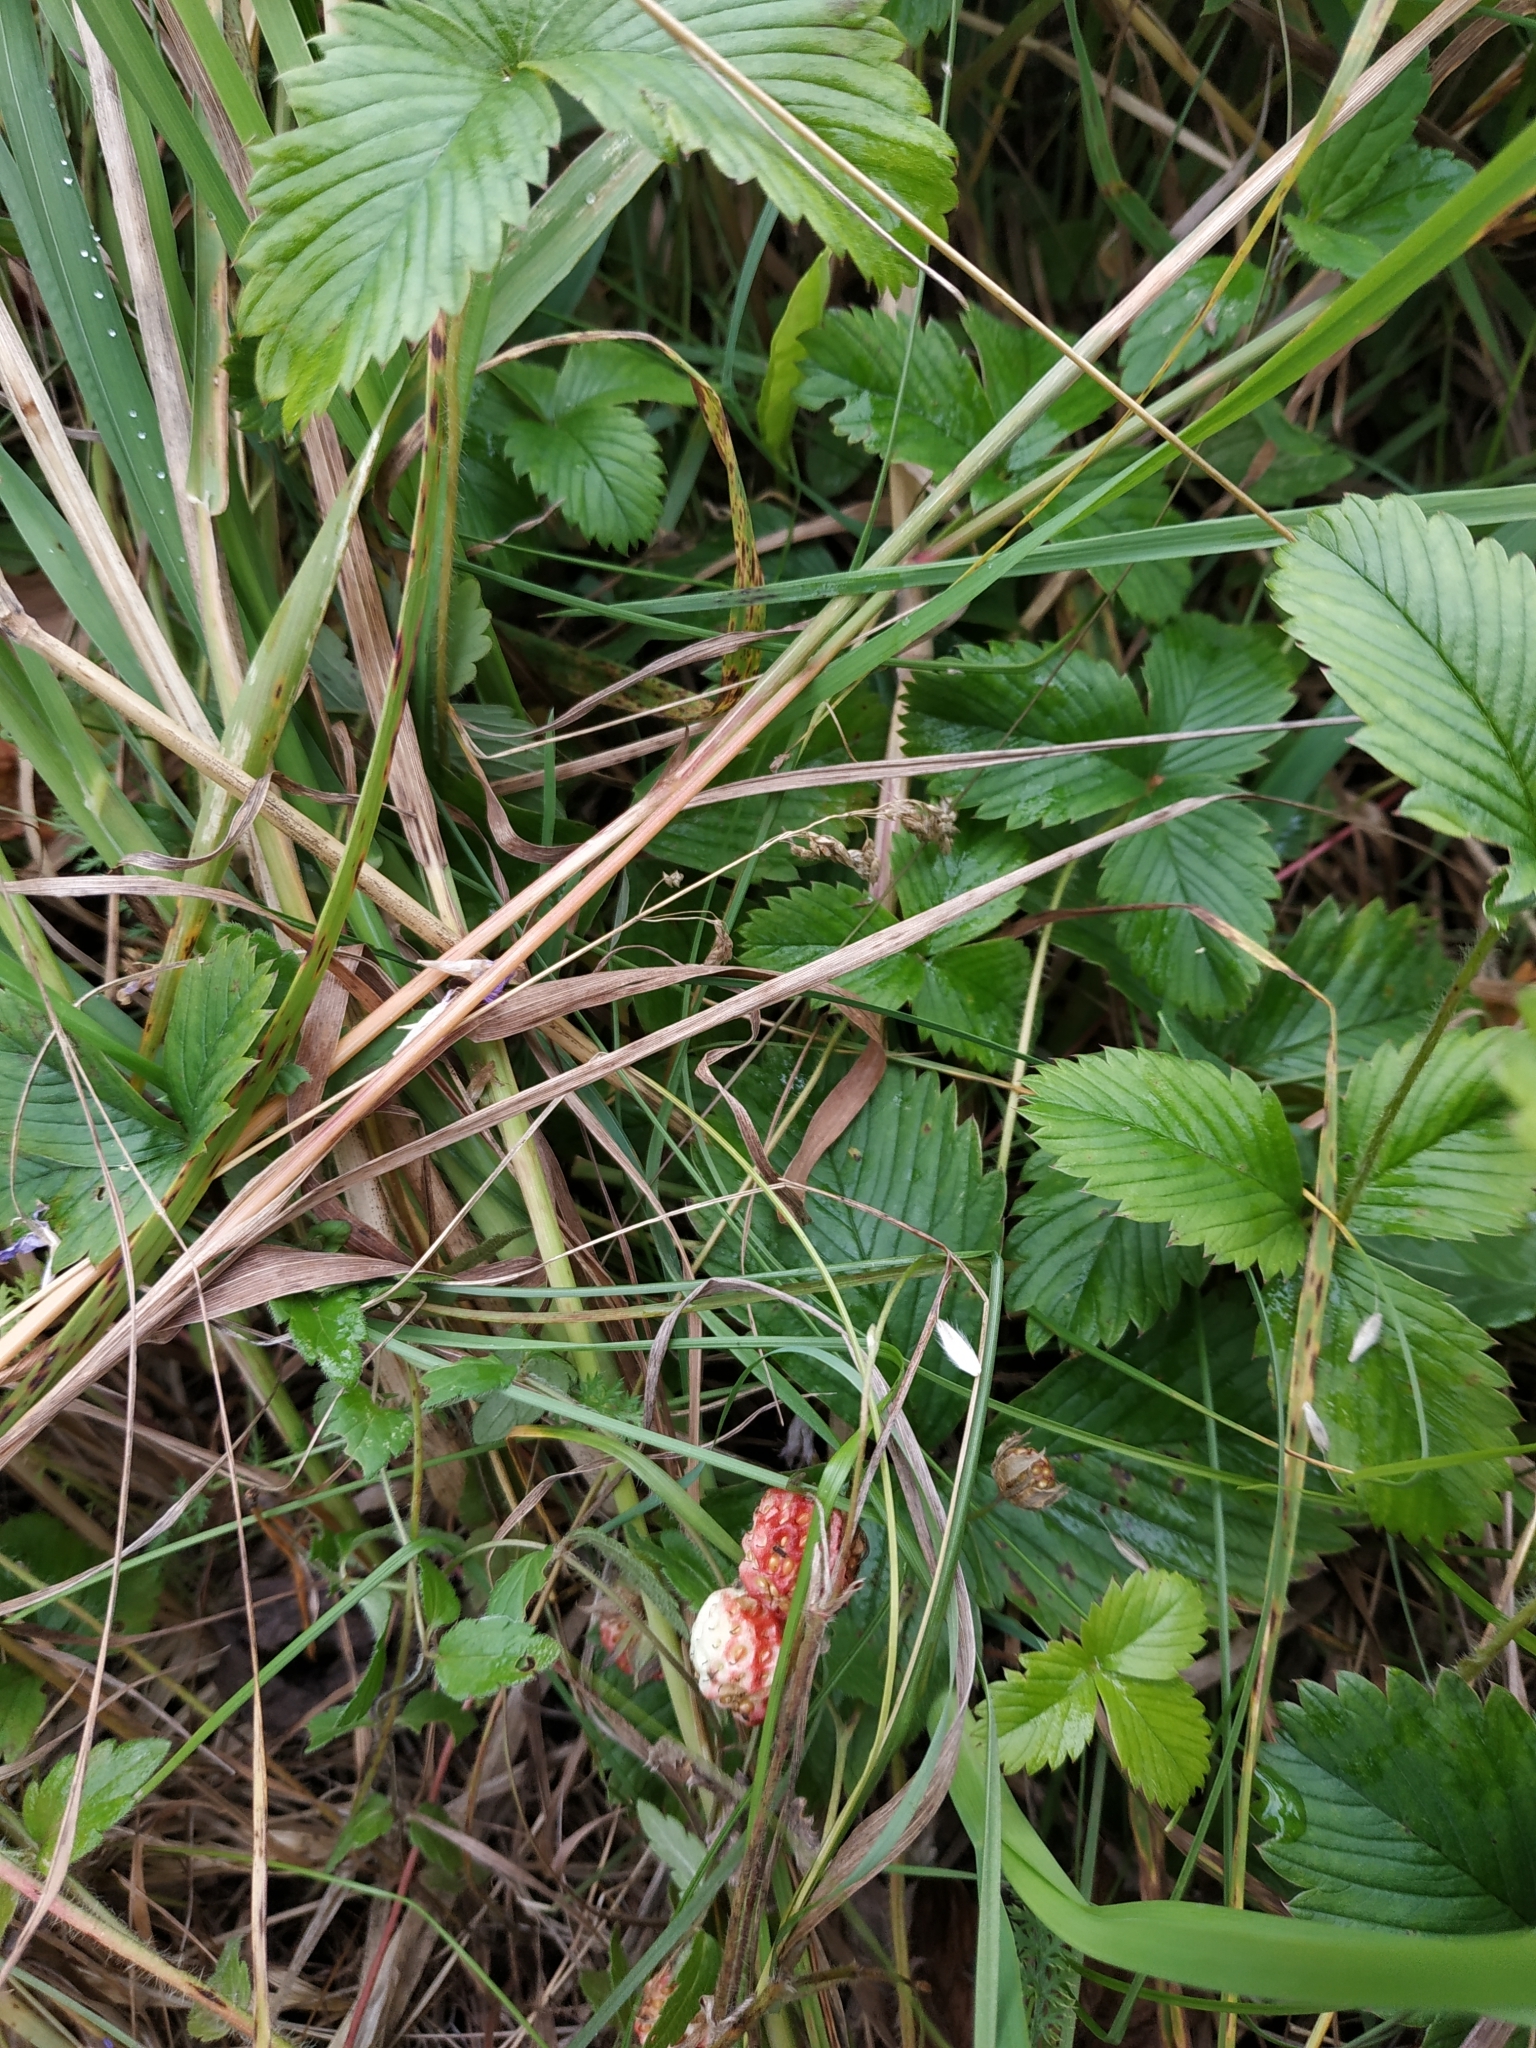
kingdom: Plantae
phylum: Tracheophyta
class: Magnoliopsida
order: Rosales
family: Rosaceae
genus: Fragaria
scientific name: Fragaria viridis
